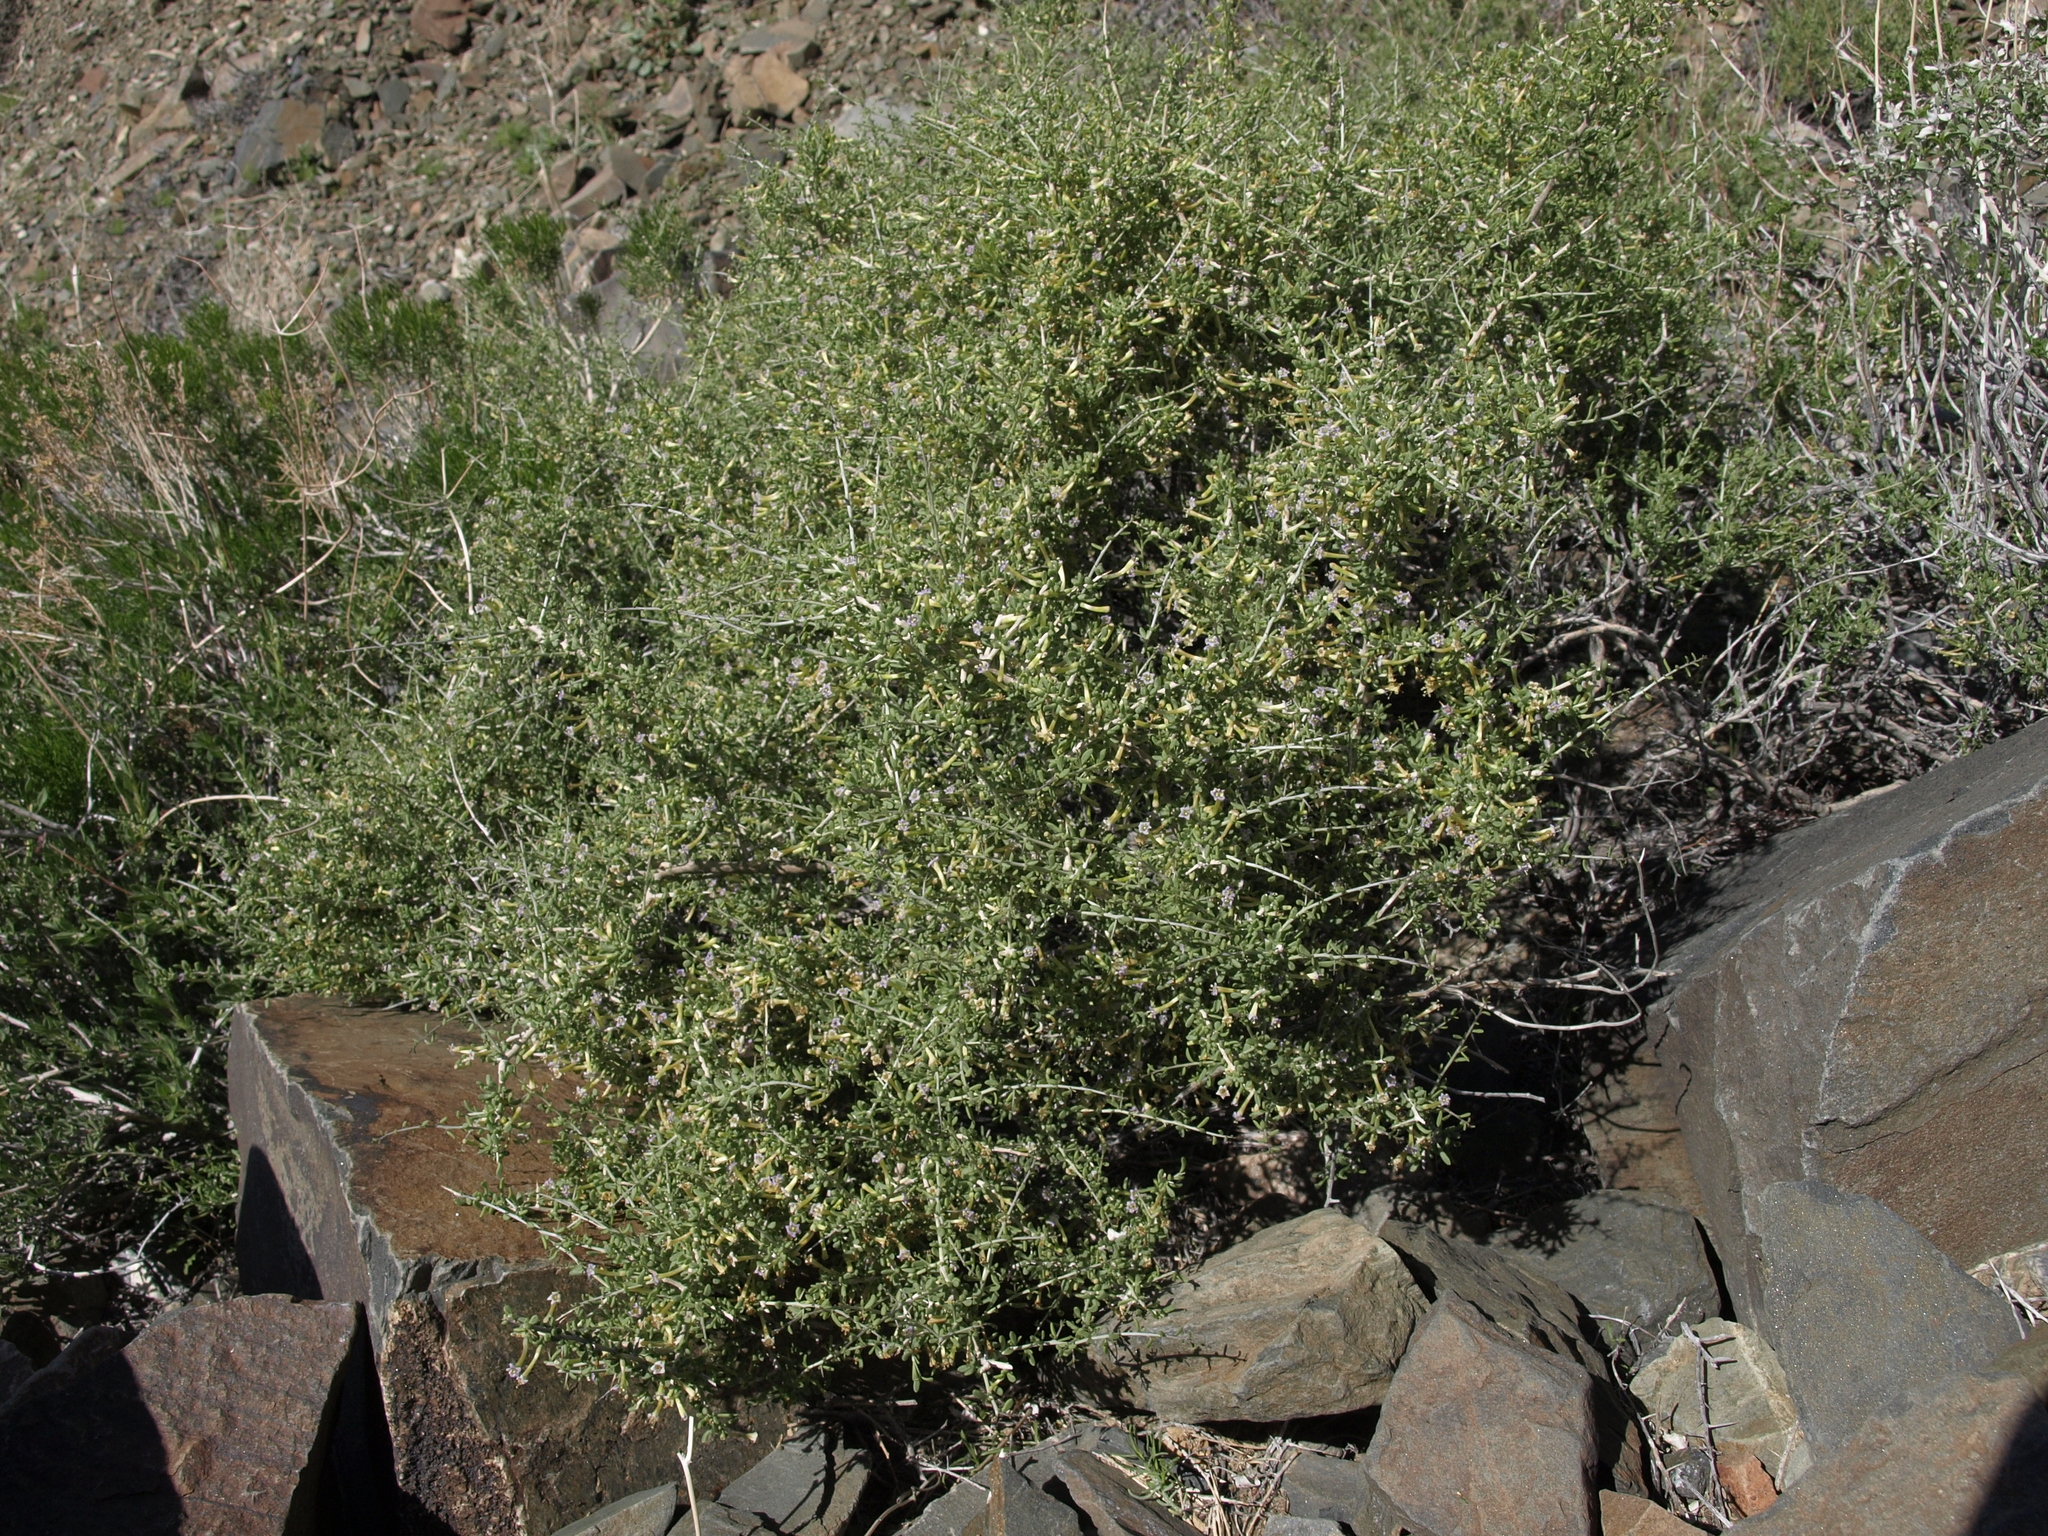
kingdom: Plantae
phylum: Tracheophyta
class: Magnoliopsida
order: Solanales
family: Solanaceae
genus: Lycium
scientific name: Lycium andersonii
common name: Water-jacket
